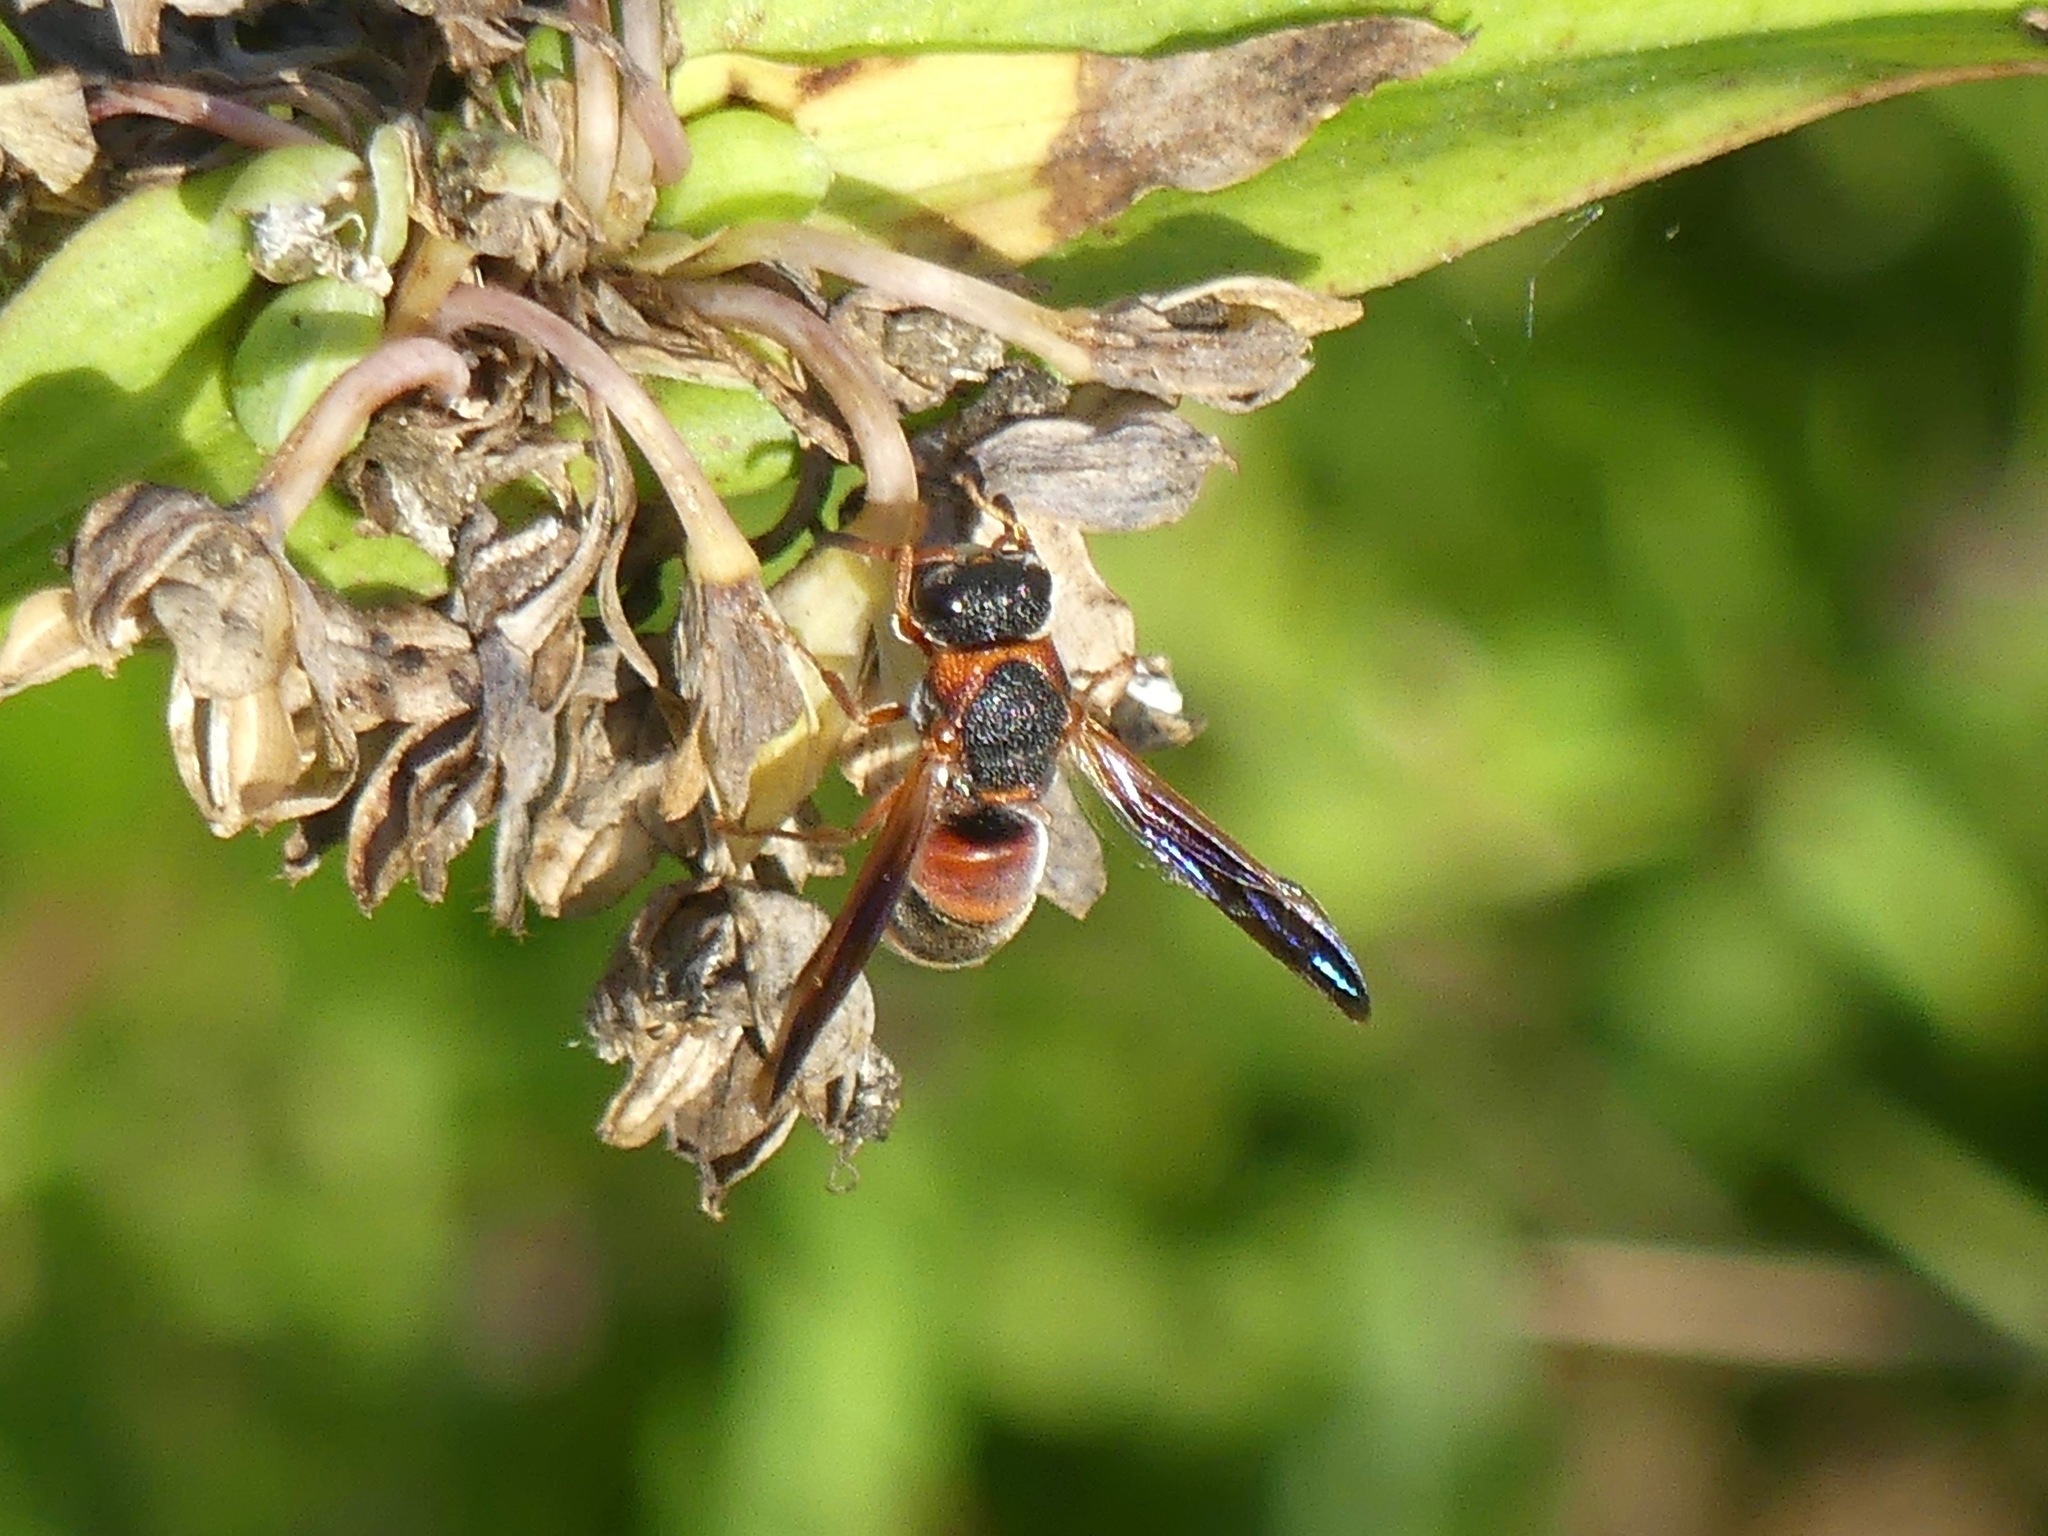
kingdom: Animalia
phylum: Arthropoda
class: Insecta
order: Hymenoptera
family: Eumenidae
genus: Pachodynerus
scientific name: Pachodynerus erynnis
